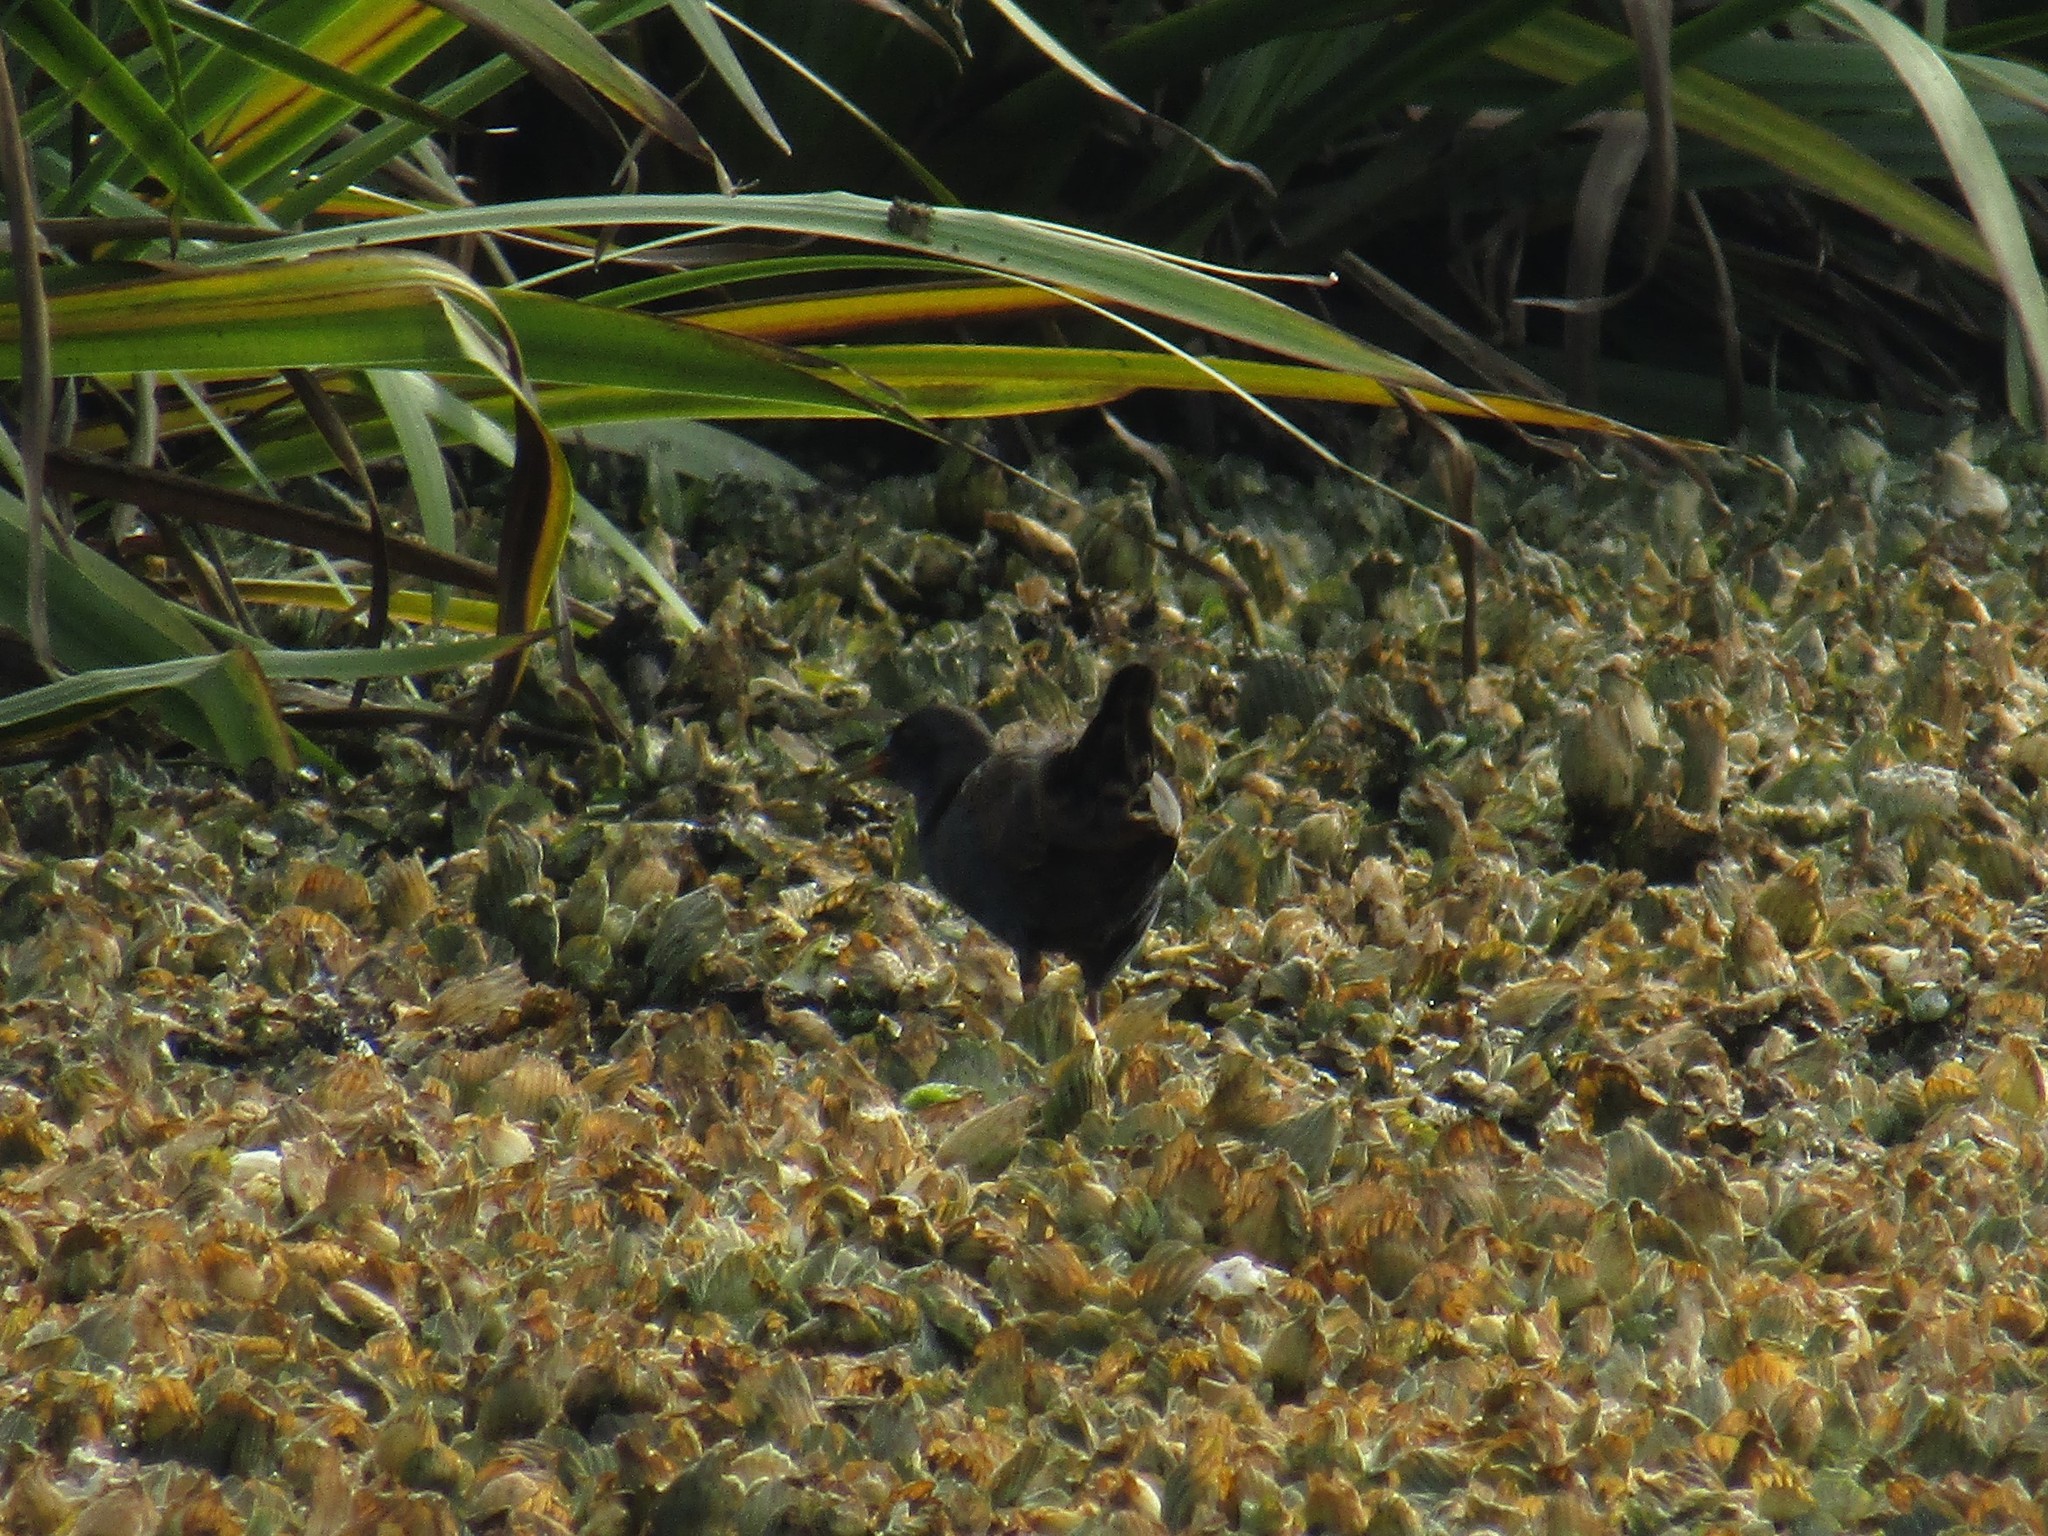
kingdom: Animalia
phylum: Chordata
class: Aves
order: Gruiformes
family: Rallidae
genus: Pardirallus
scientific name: Pardirallus sanguinolentus
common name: Plumbeous rail
